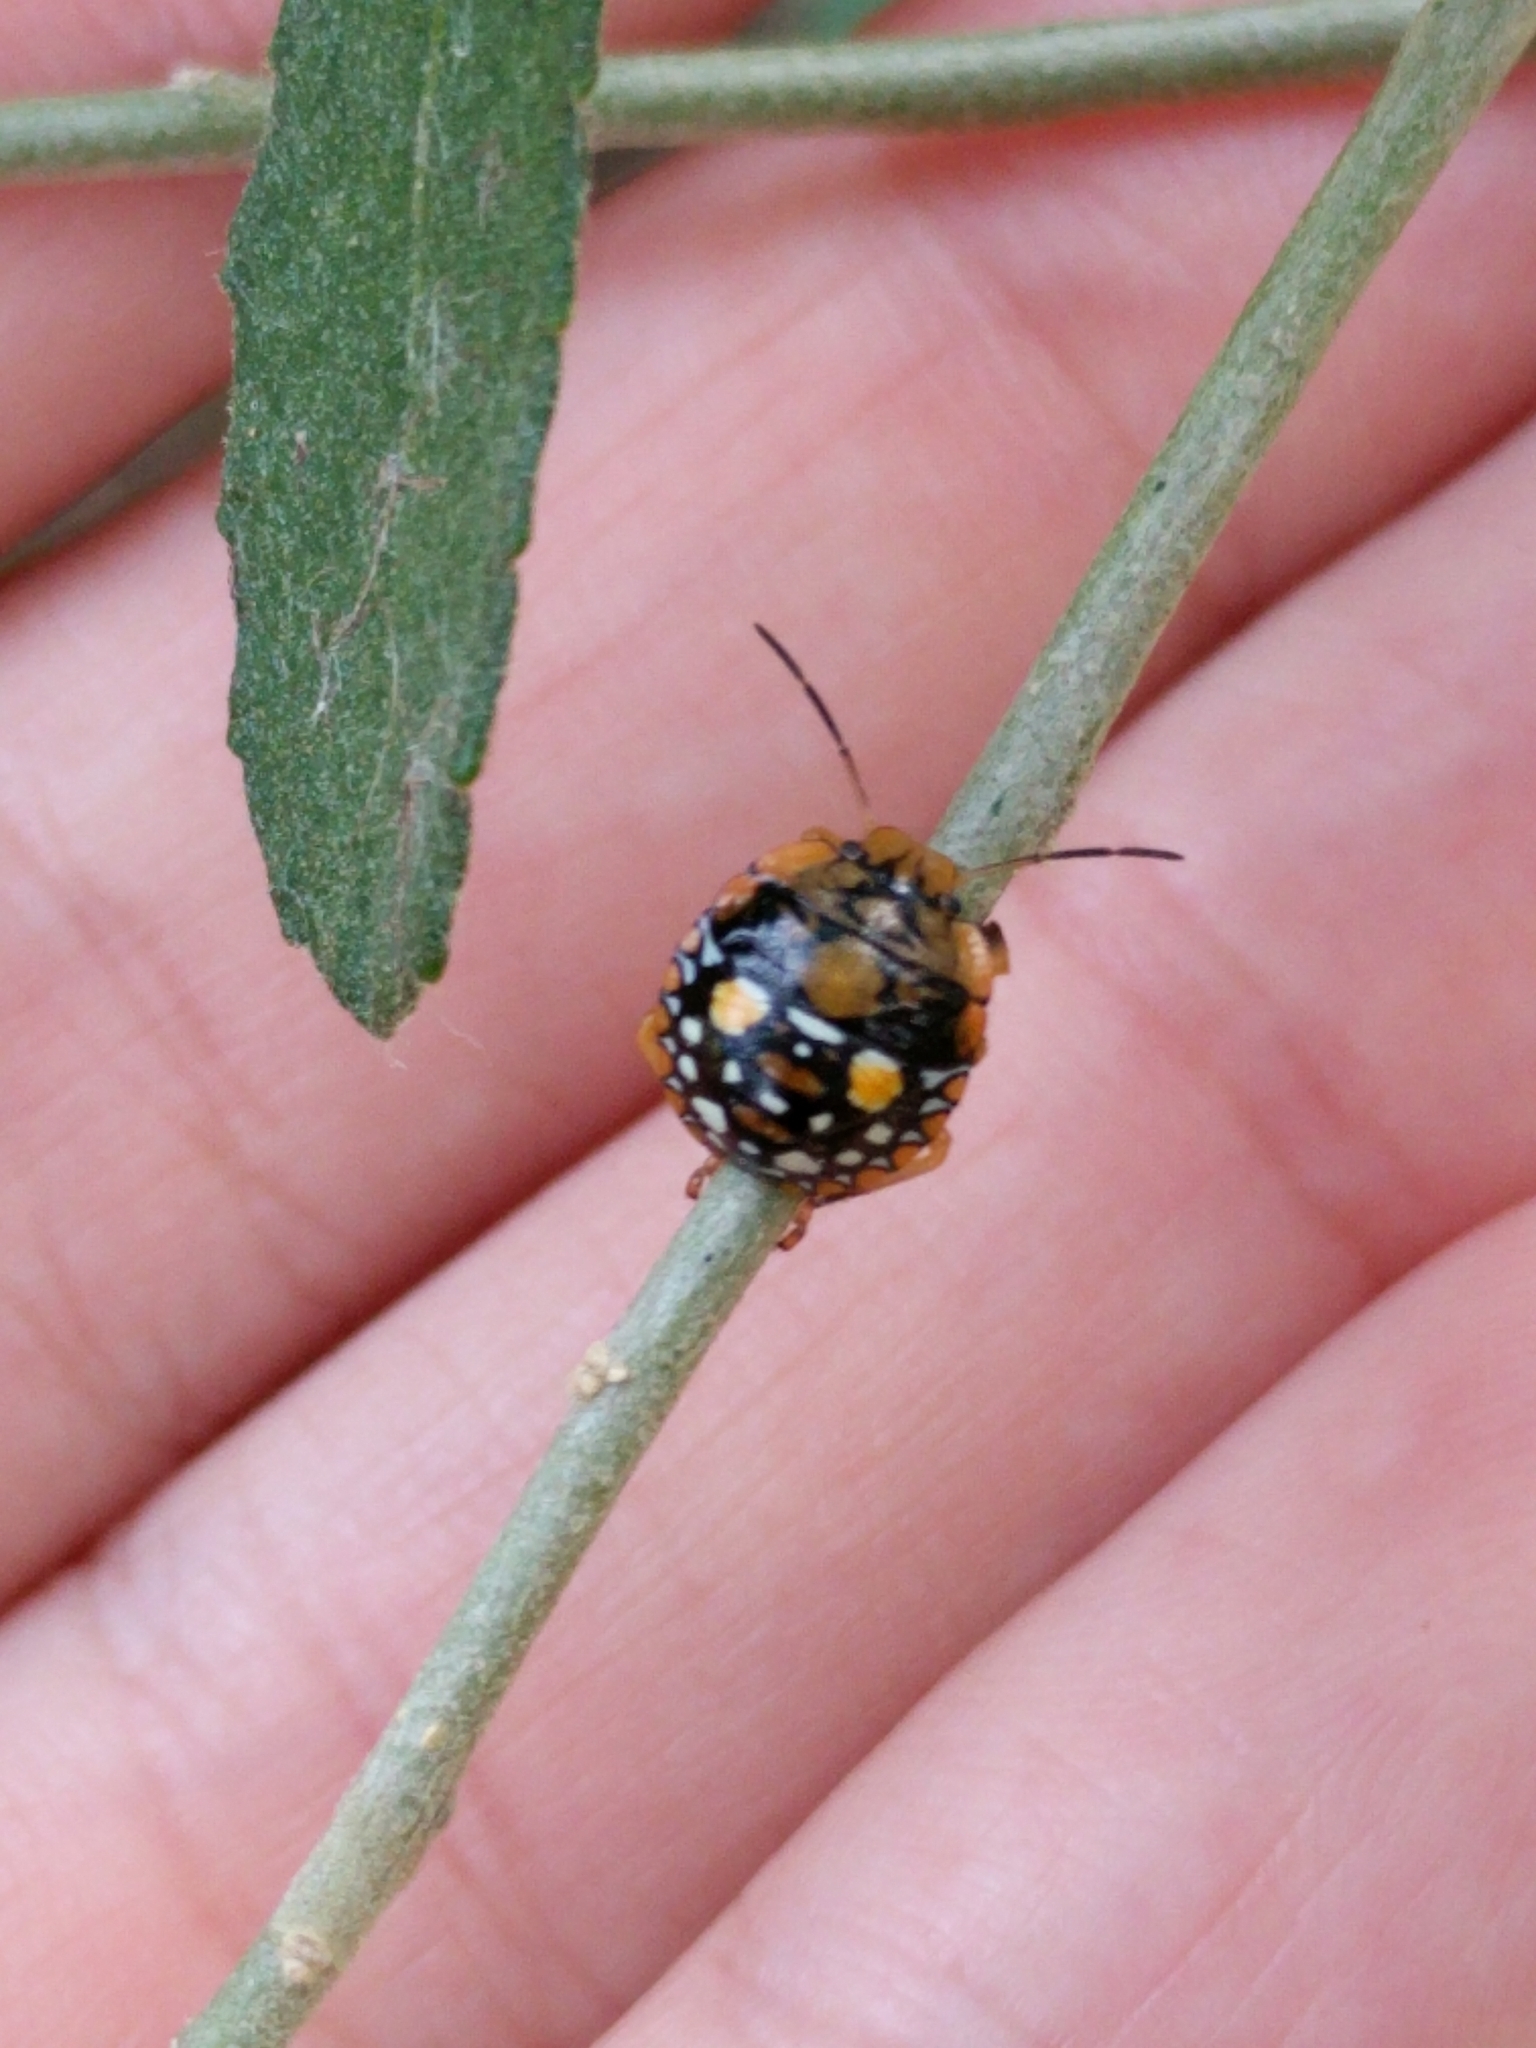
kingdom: Animalia
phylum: Arthropoda
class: Insecta
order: Hemiptera
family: Pentatomidae
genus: Acrosternum
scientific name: Acrosternum marginatum
